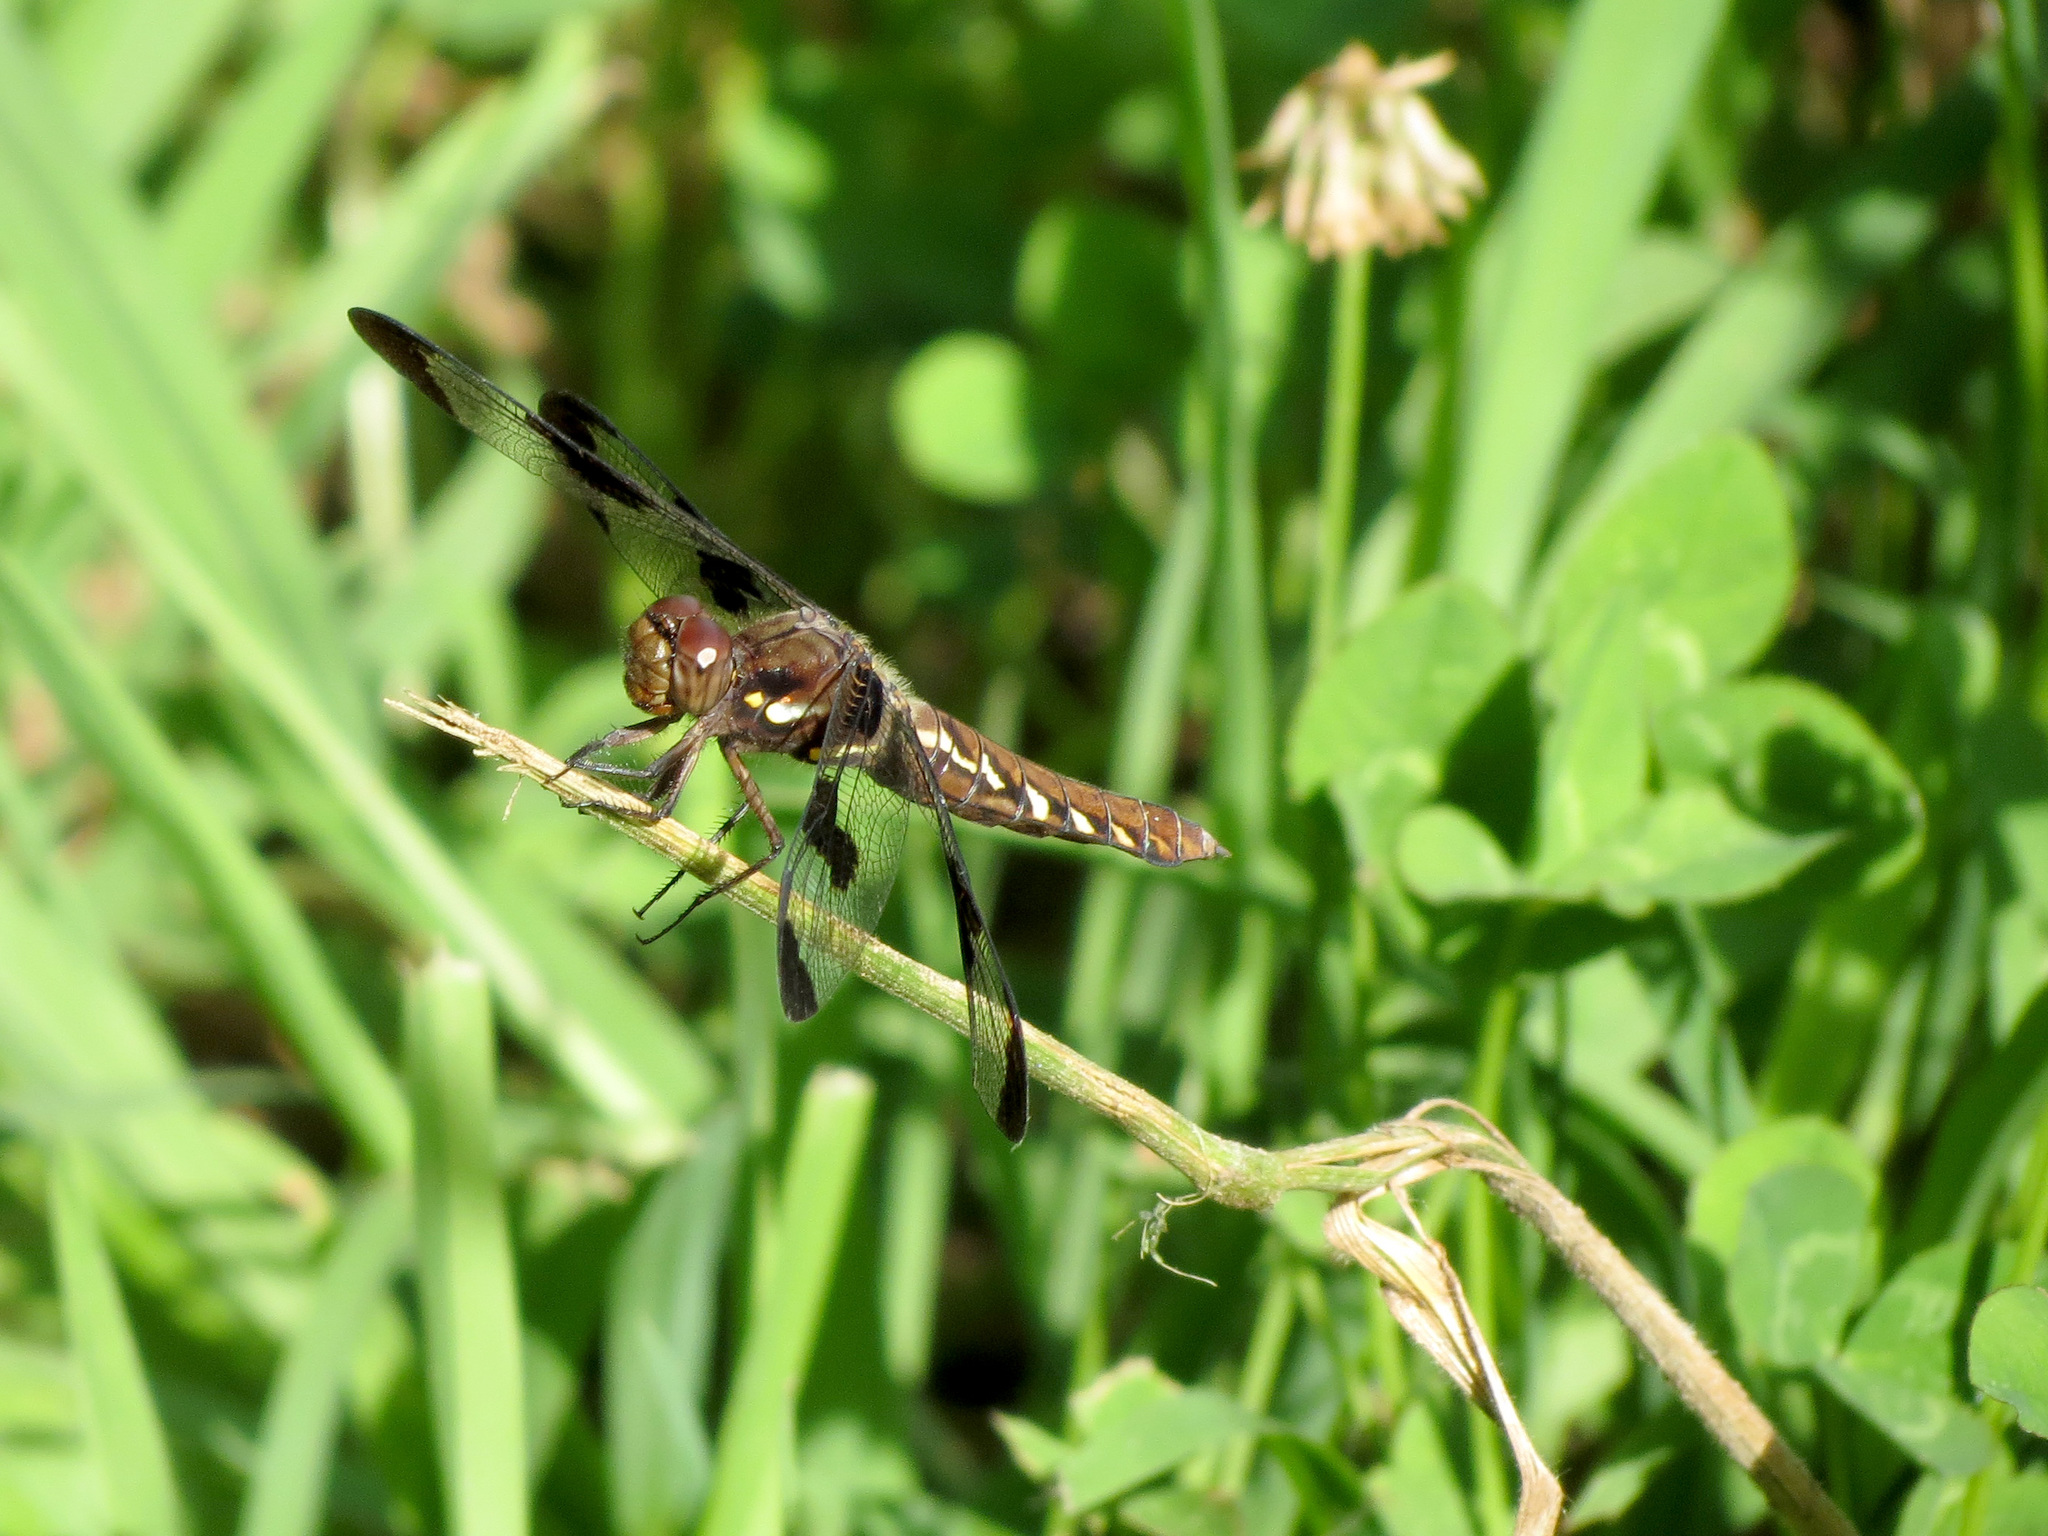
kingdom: Animalia
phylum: Arthropoda
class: Insecta
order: Odonata
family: Libellulidae
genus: Plathemis
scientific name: Plathemis lydia
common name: Common whitetail
